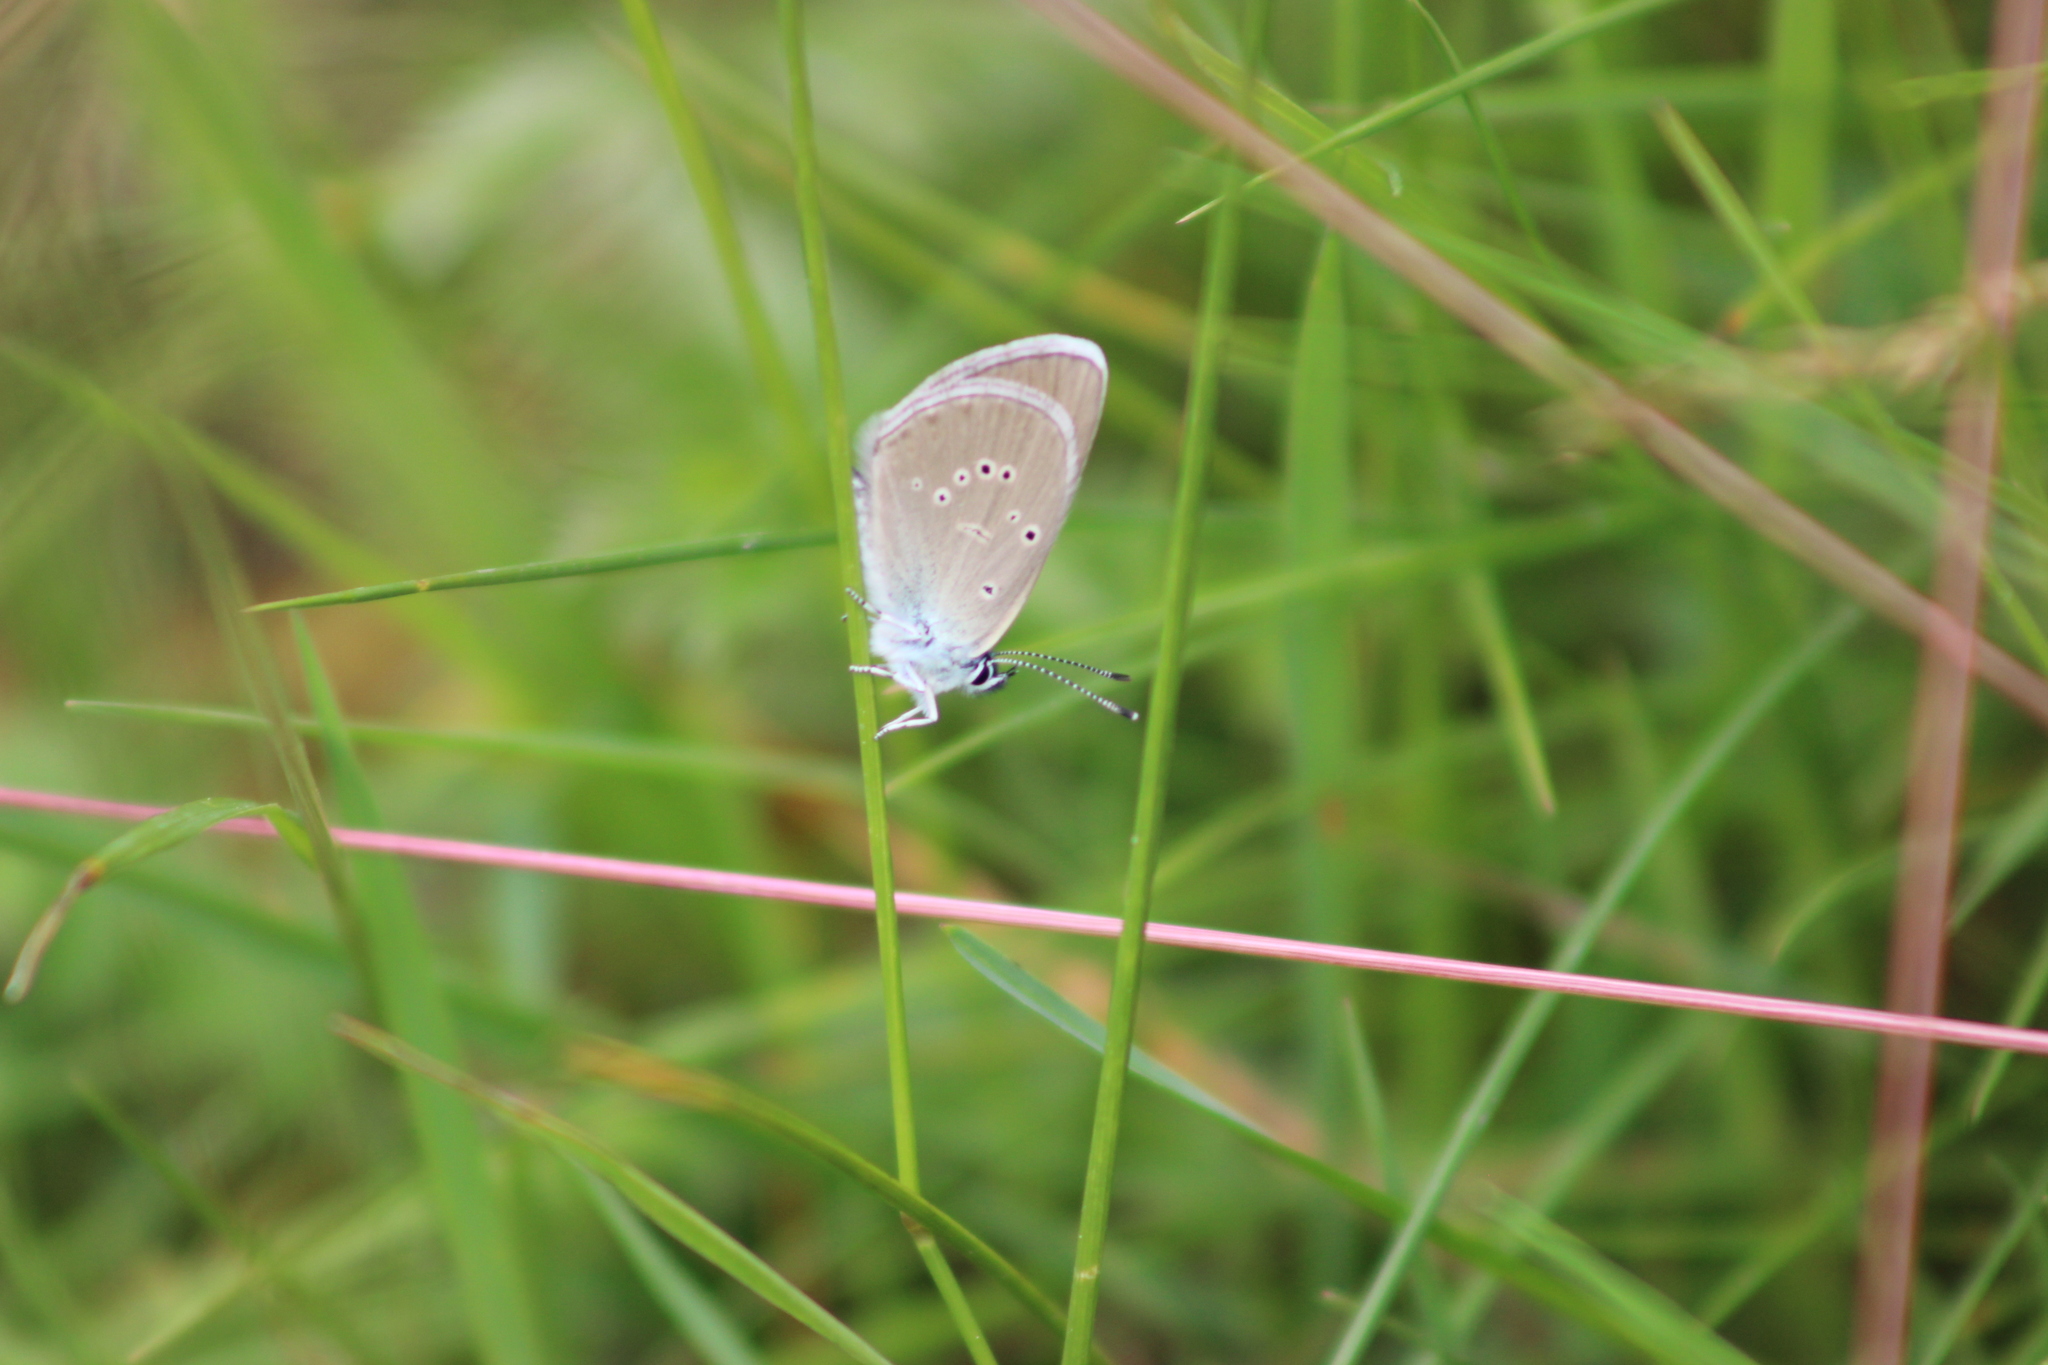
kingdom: Animalia
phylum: Arthropoda
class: Insecta
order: Lepidoptera
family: Lycaenidae
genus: Cyaniris
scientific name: Cyaniris semiargus
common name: Mazarine blue
